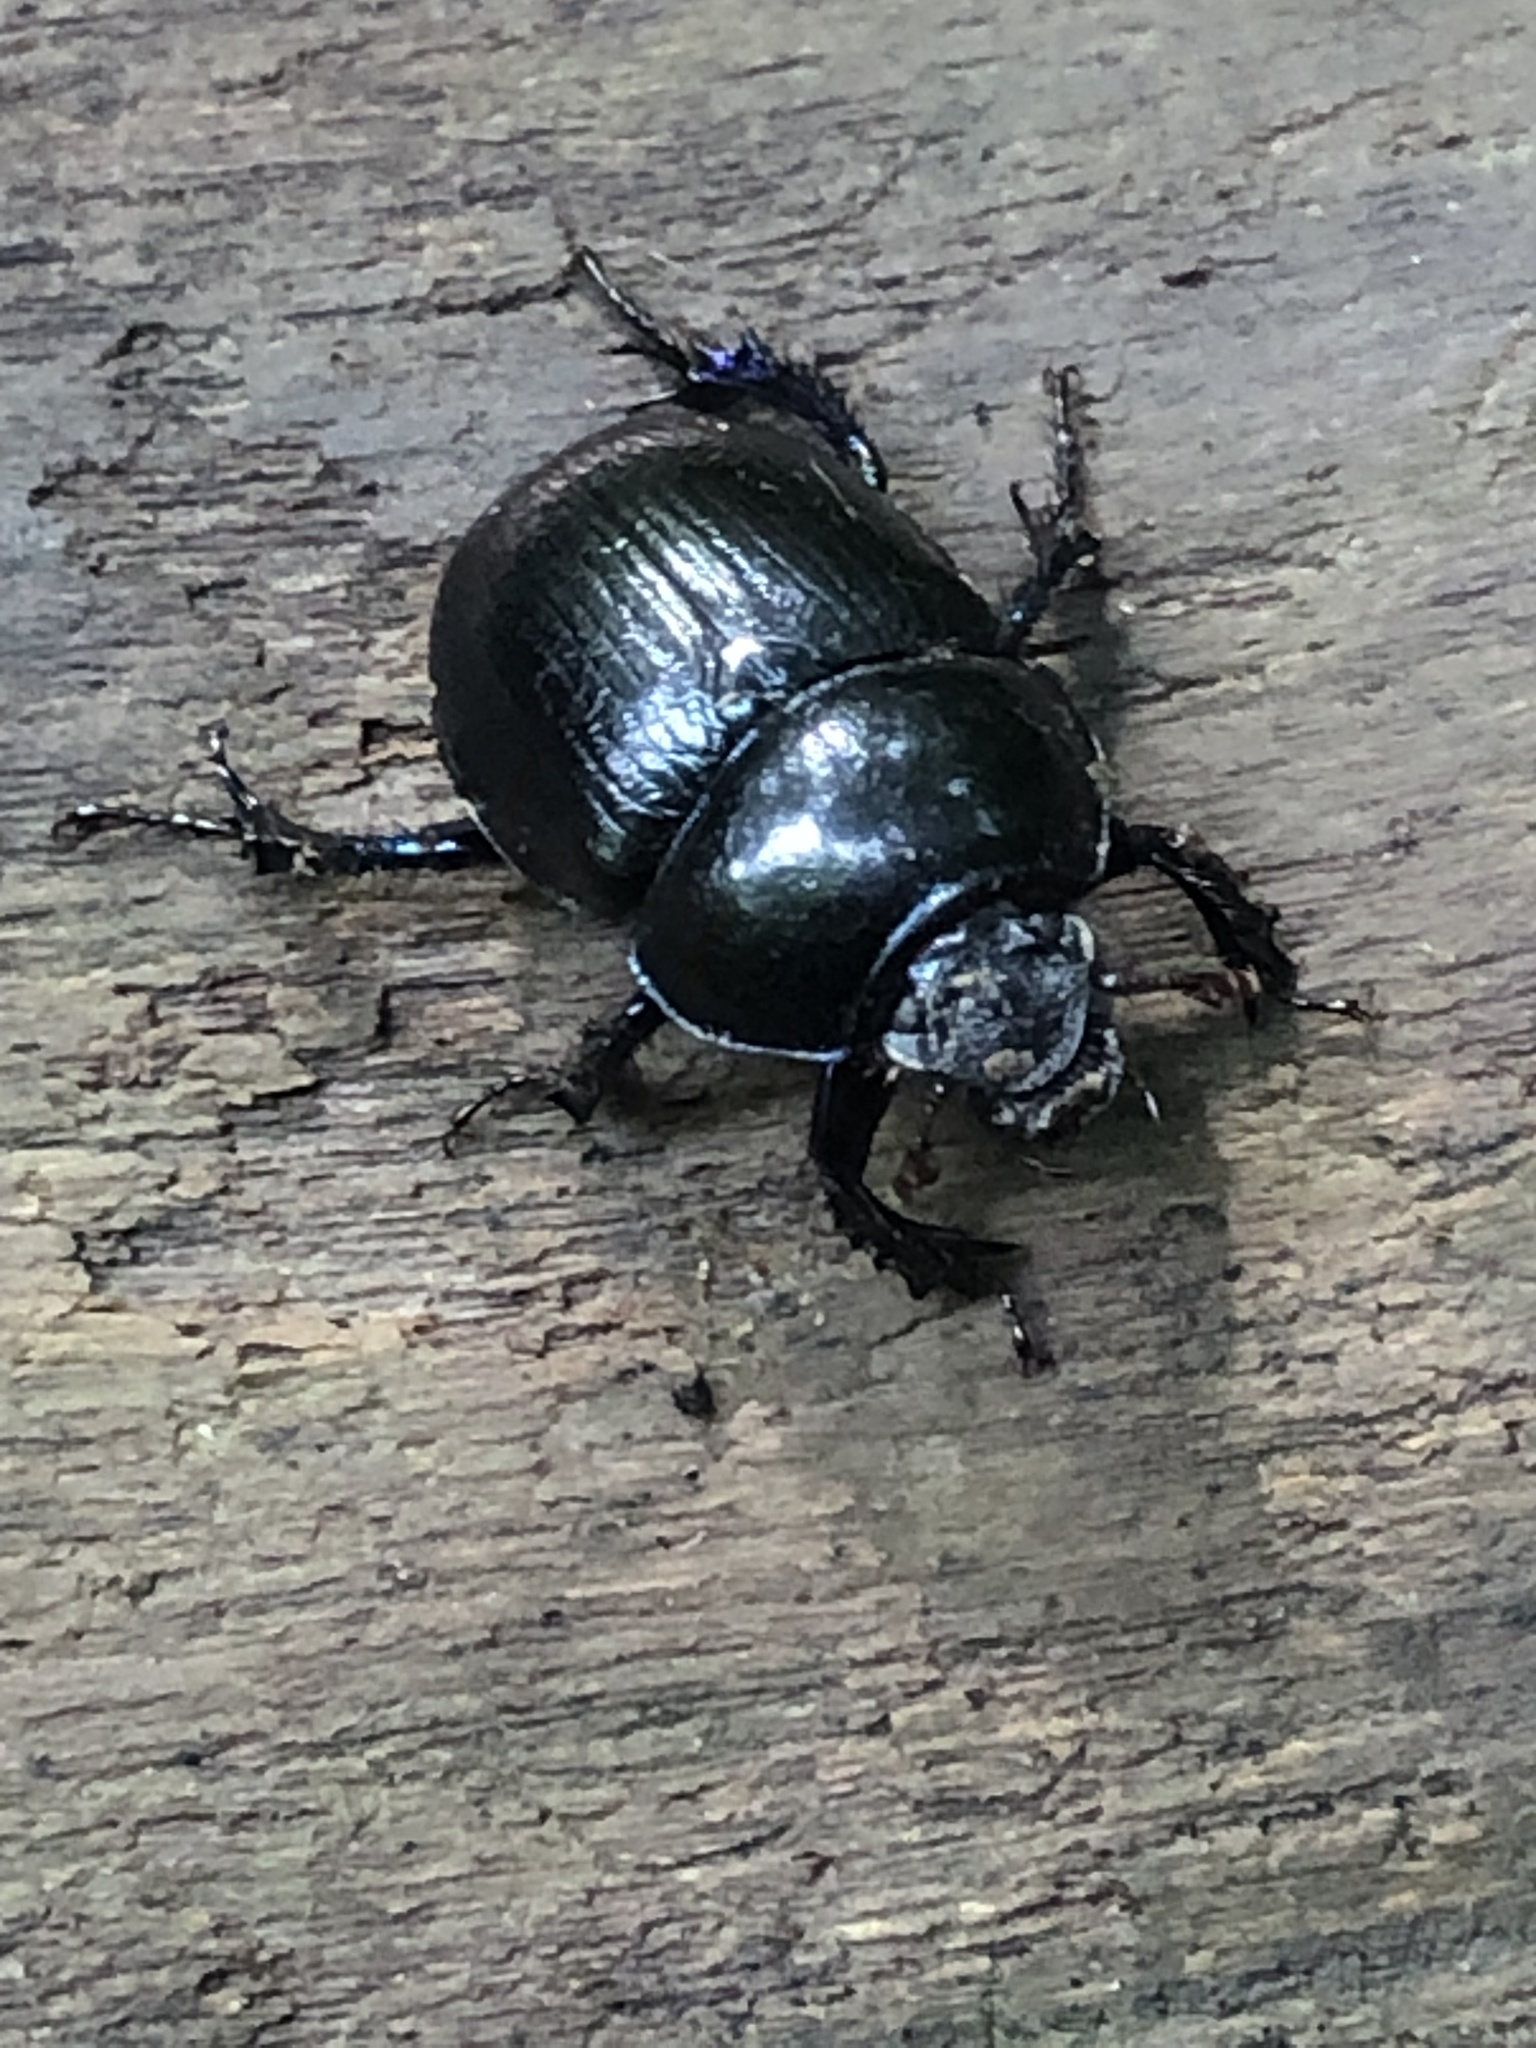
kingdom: Animalia
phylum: Arthropoda
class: Insecta
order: Coleoptera
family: Geotrupidae
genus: Anoplotrupes
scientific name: Anoplotrupes stercorosus
